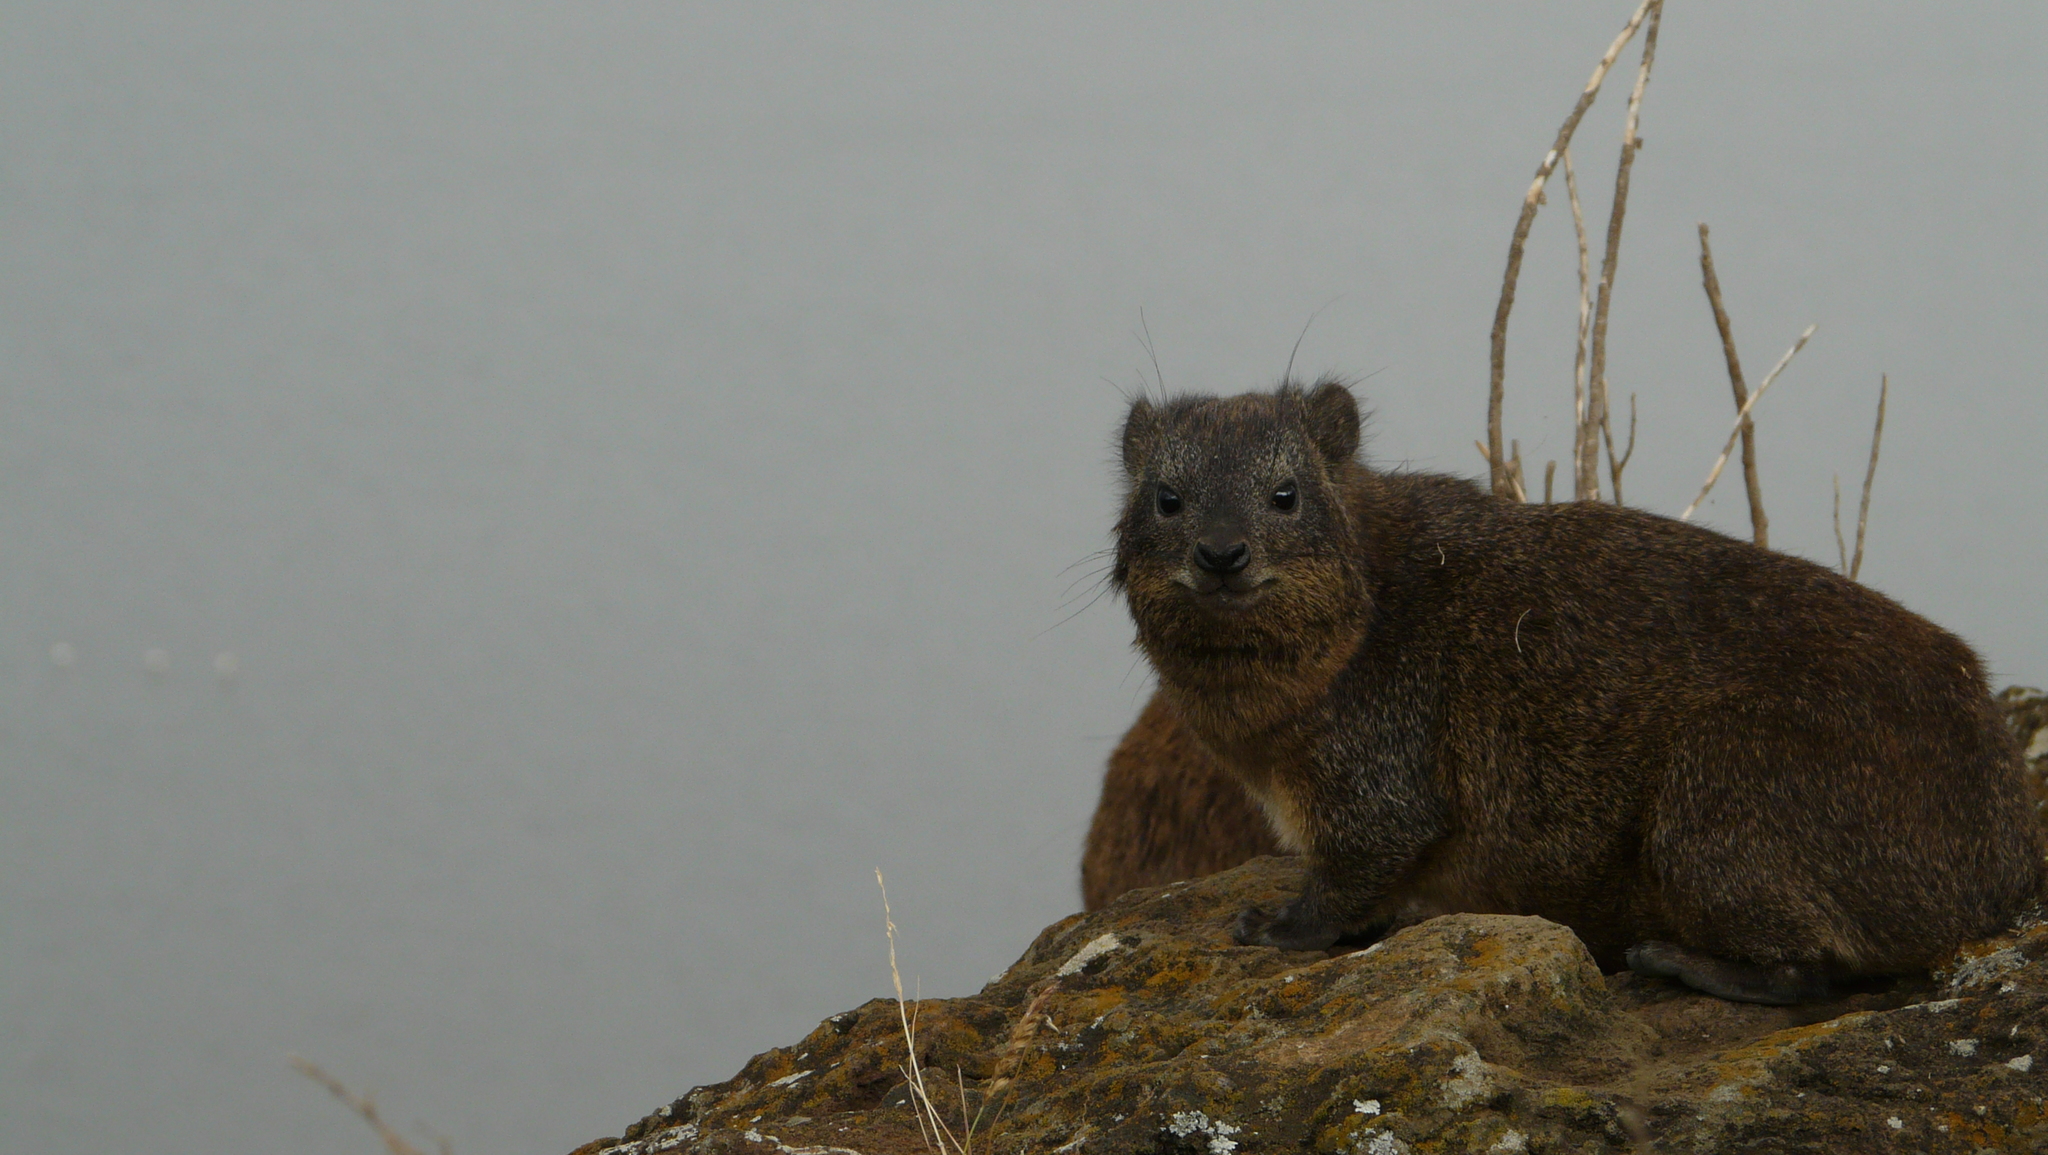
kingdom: Animalia
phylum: Chordata
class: Mammalia
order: Hyracoidea
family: Procaviidae
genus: Procavia
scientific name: Procavia capensis
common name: Rock hyrax
